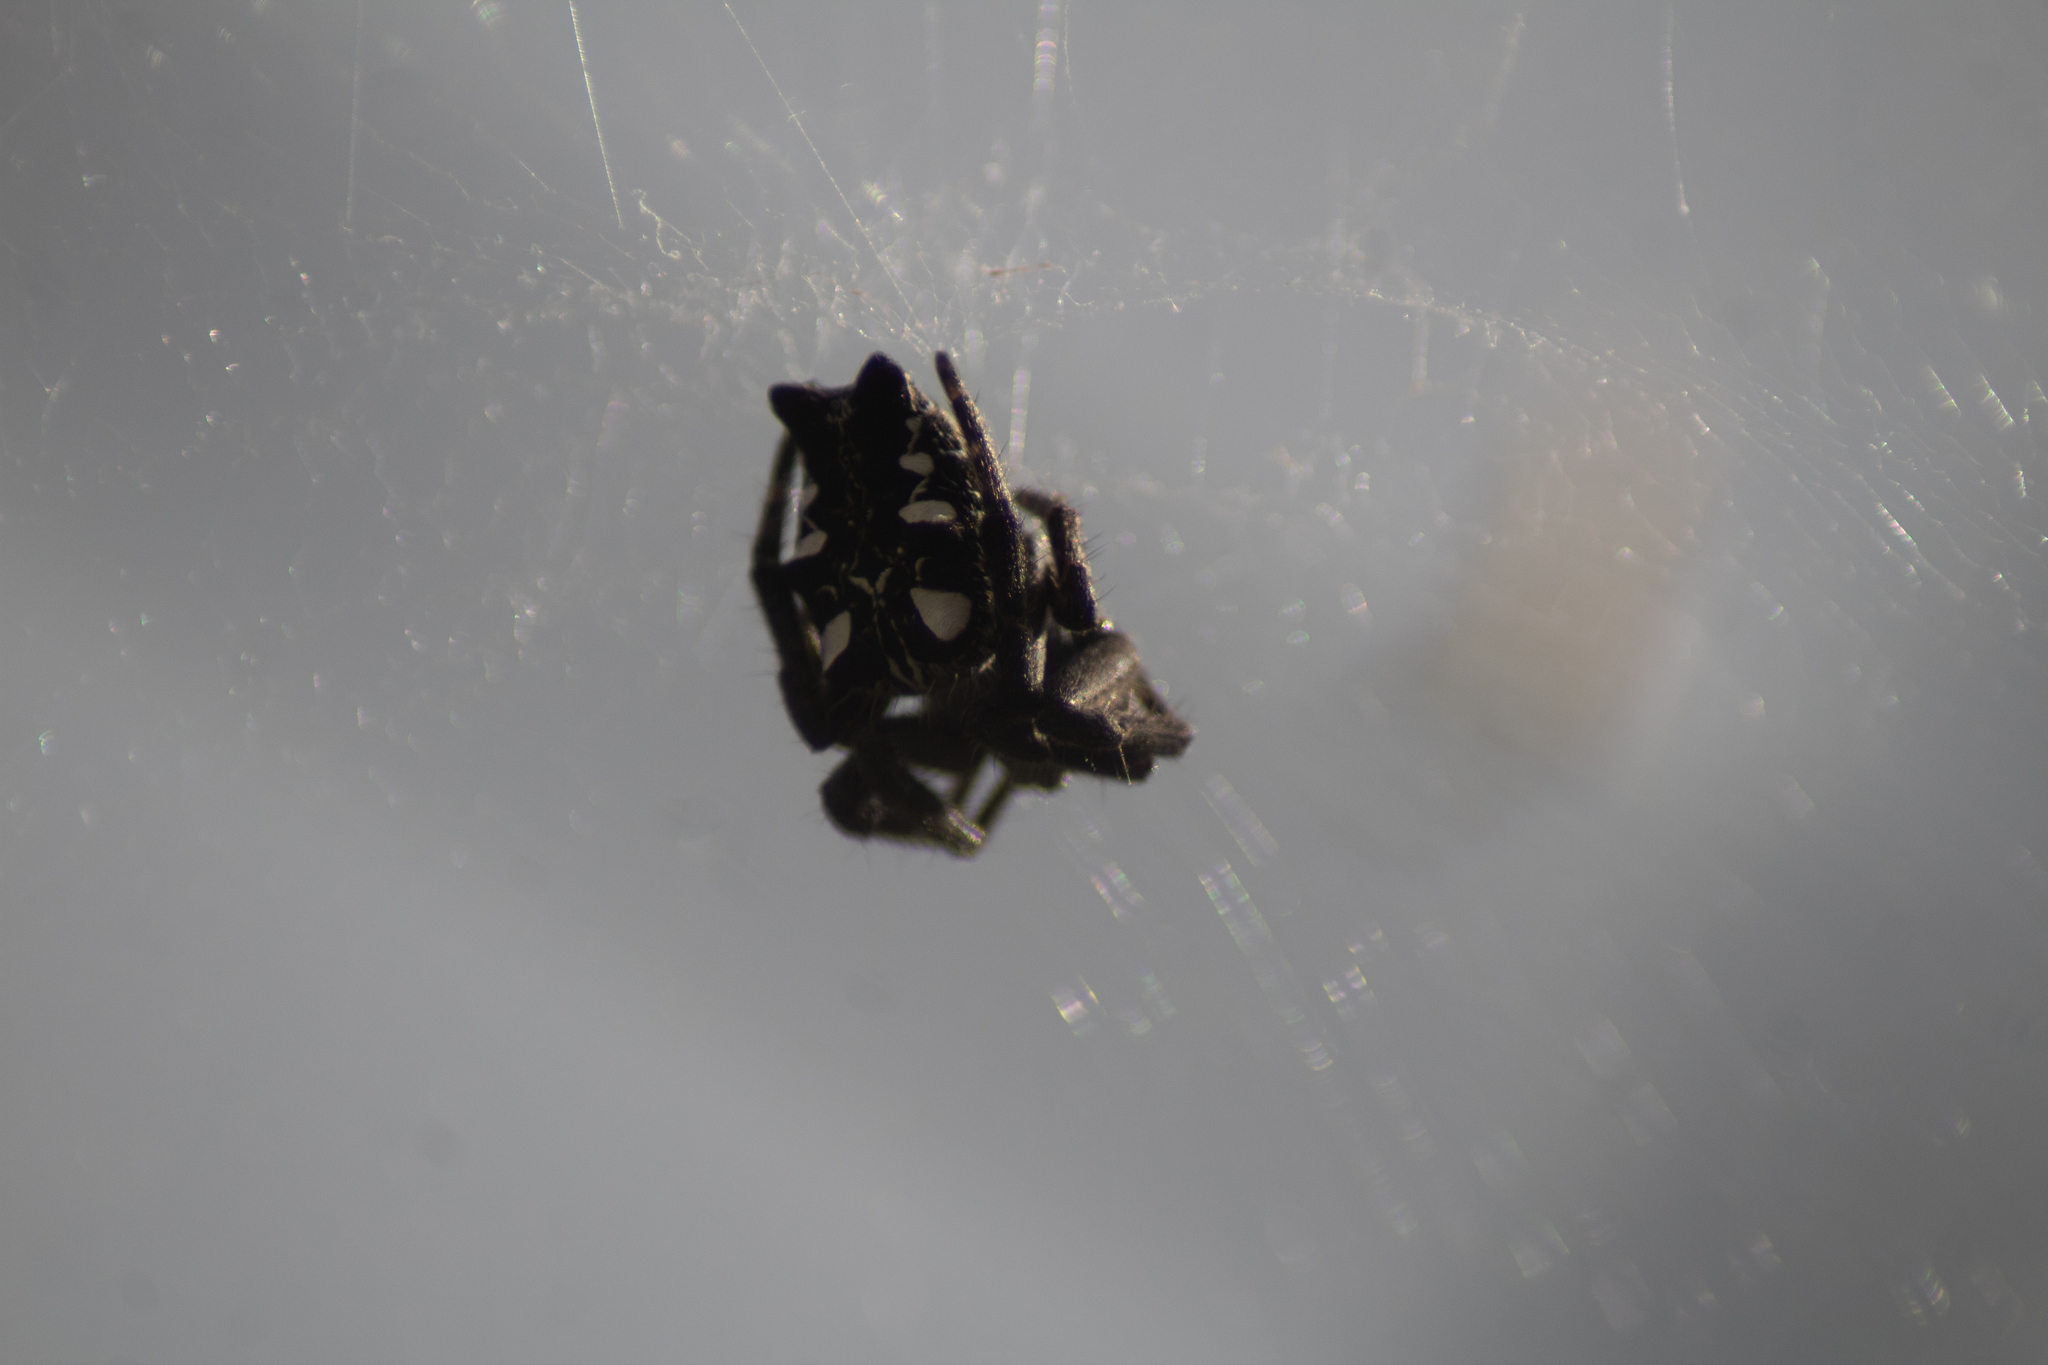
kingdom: Animalia
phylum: Arthropoda
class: Arachnida
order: Araneae
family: Araneidae
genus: Cyrtophora
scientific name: Cyrtophora citricola
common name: Orb weavers
